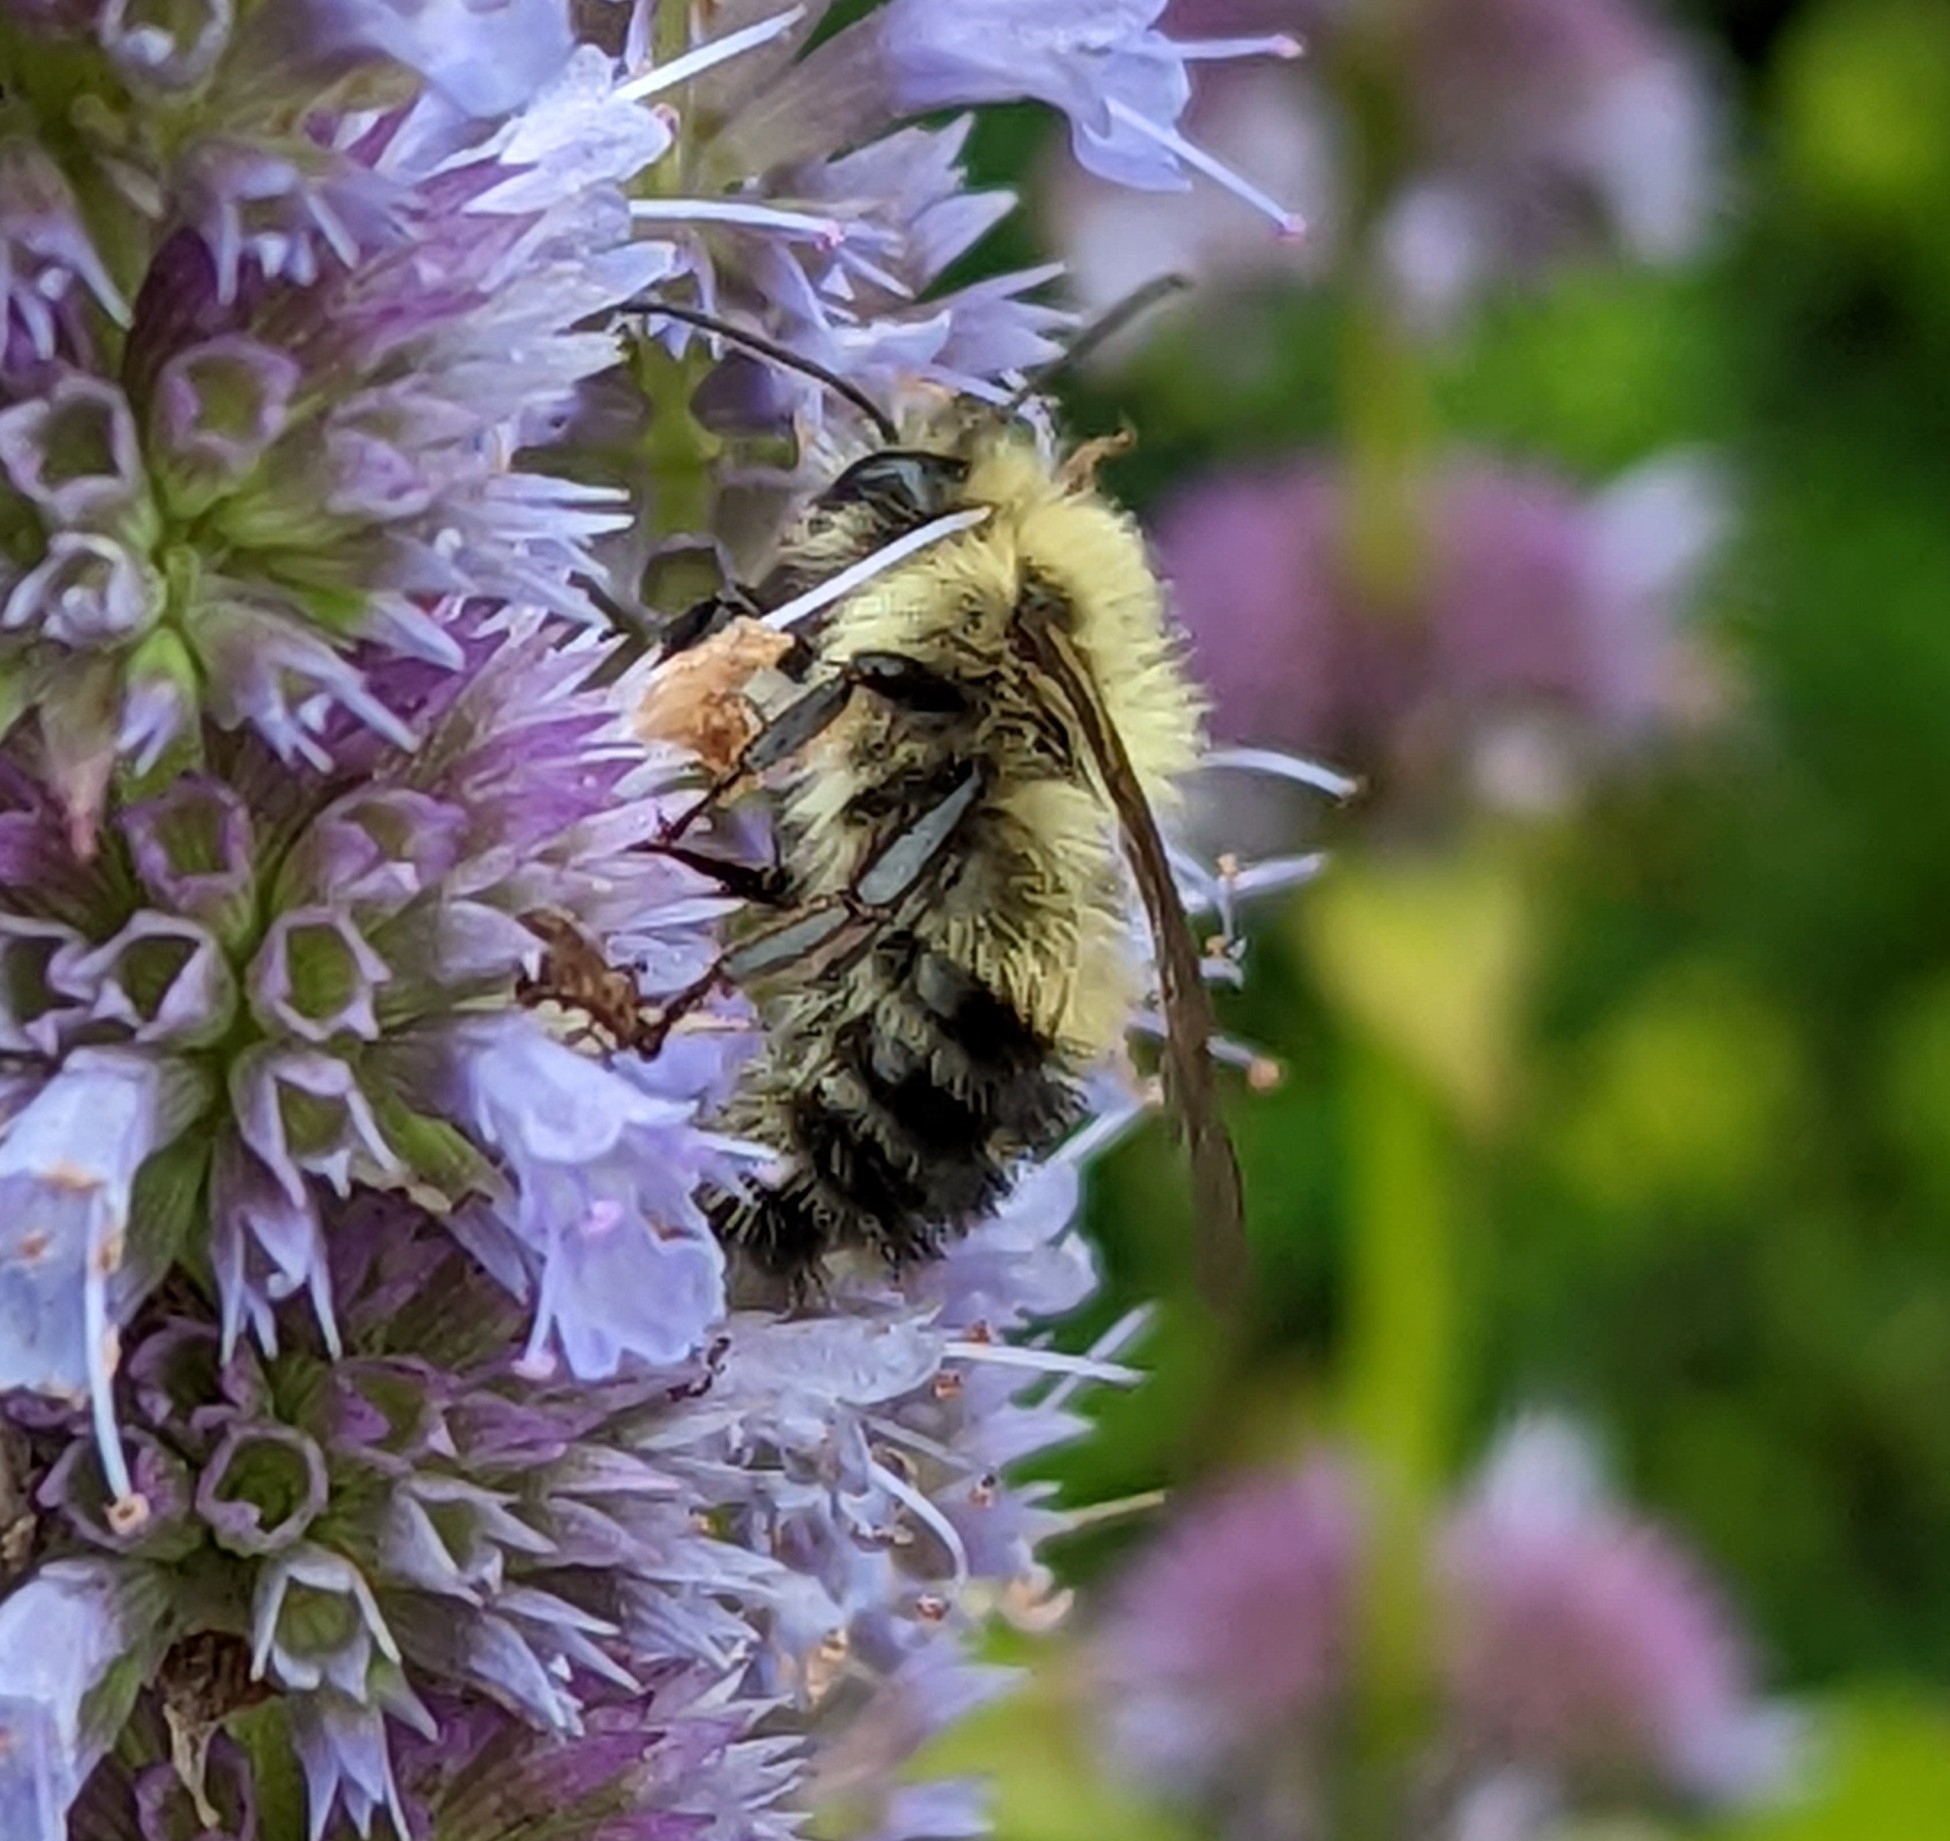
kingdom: Animalia
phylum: Arthropoda
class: Insecta
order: Hymenoptera
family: Apidae
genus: Bombus
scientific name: Bombus bimaculatus
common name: Two-spotted bumble bee
